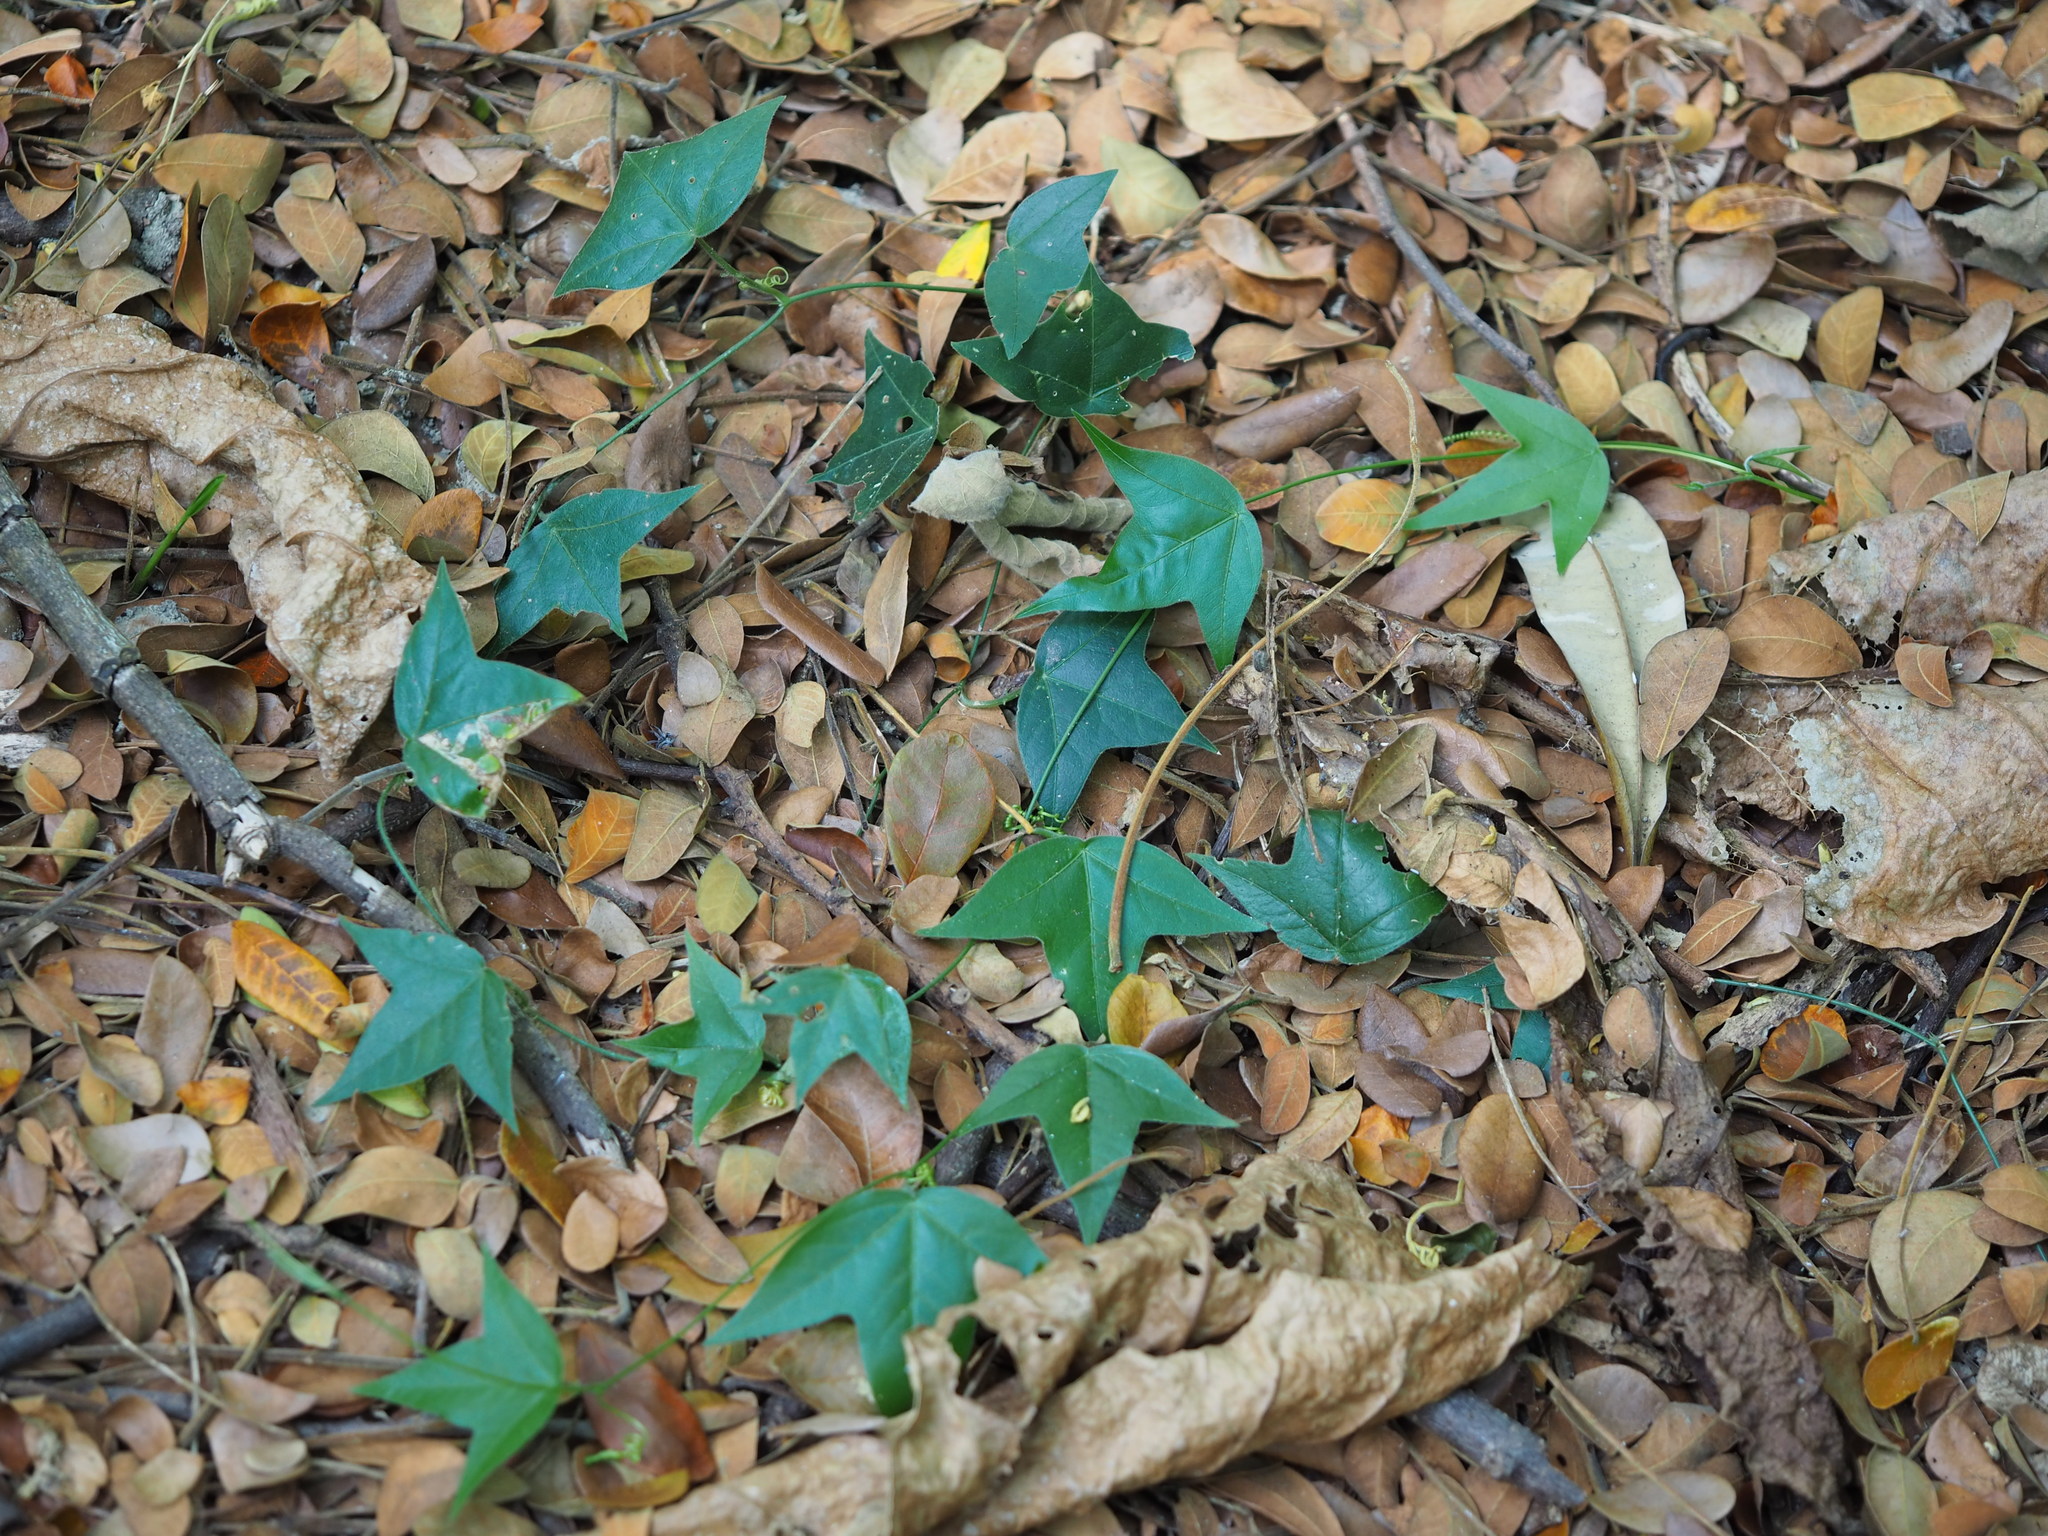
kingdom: Plantae
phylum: Tracheophyta
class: Magnoliopsida
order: Malpighiales
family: Passifloraceae
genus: Passiflora
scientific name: Passiflora suberosa
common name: Wild passionfruit
